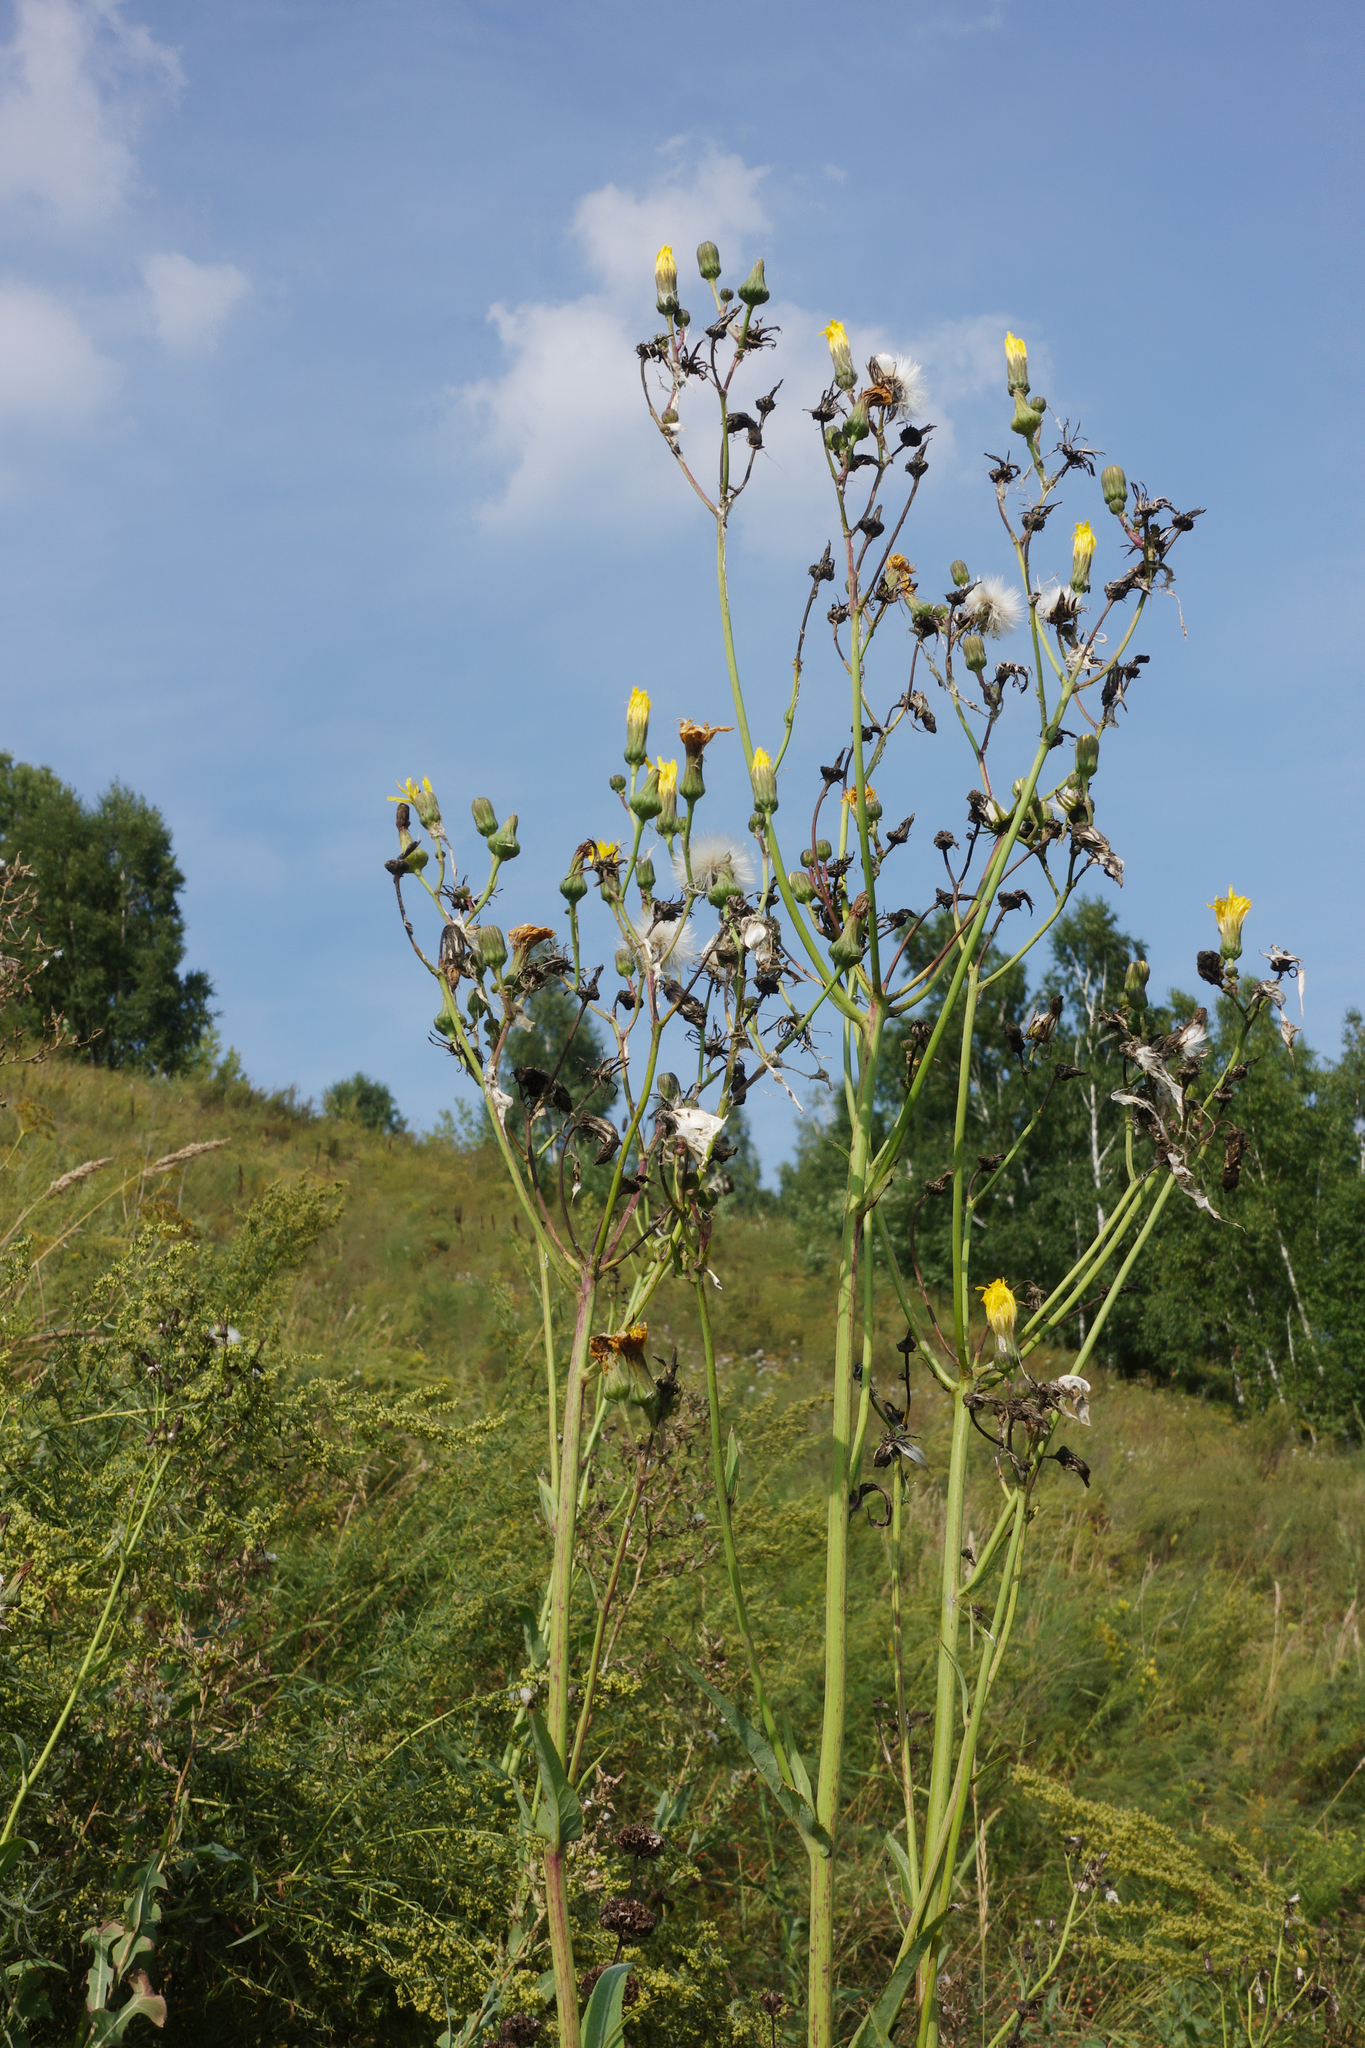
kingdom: Plantae
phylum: Tracheophyta
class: Magnoliopsida
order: Asterales
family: Asteraceae
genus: Sonchus
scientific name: Sonchus arvensis
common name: Perennial sow-thistle
